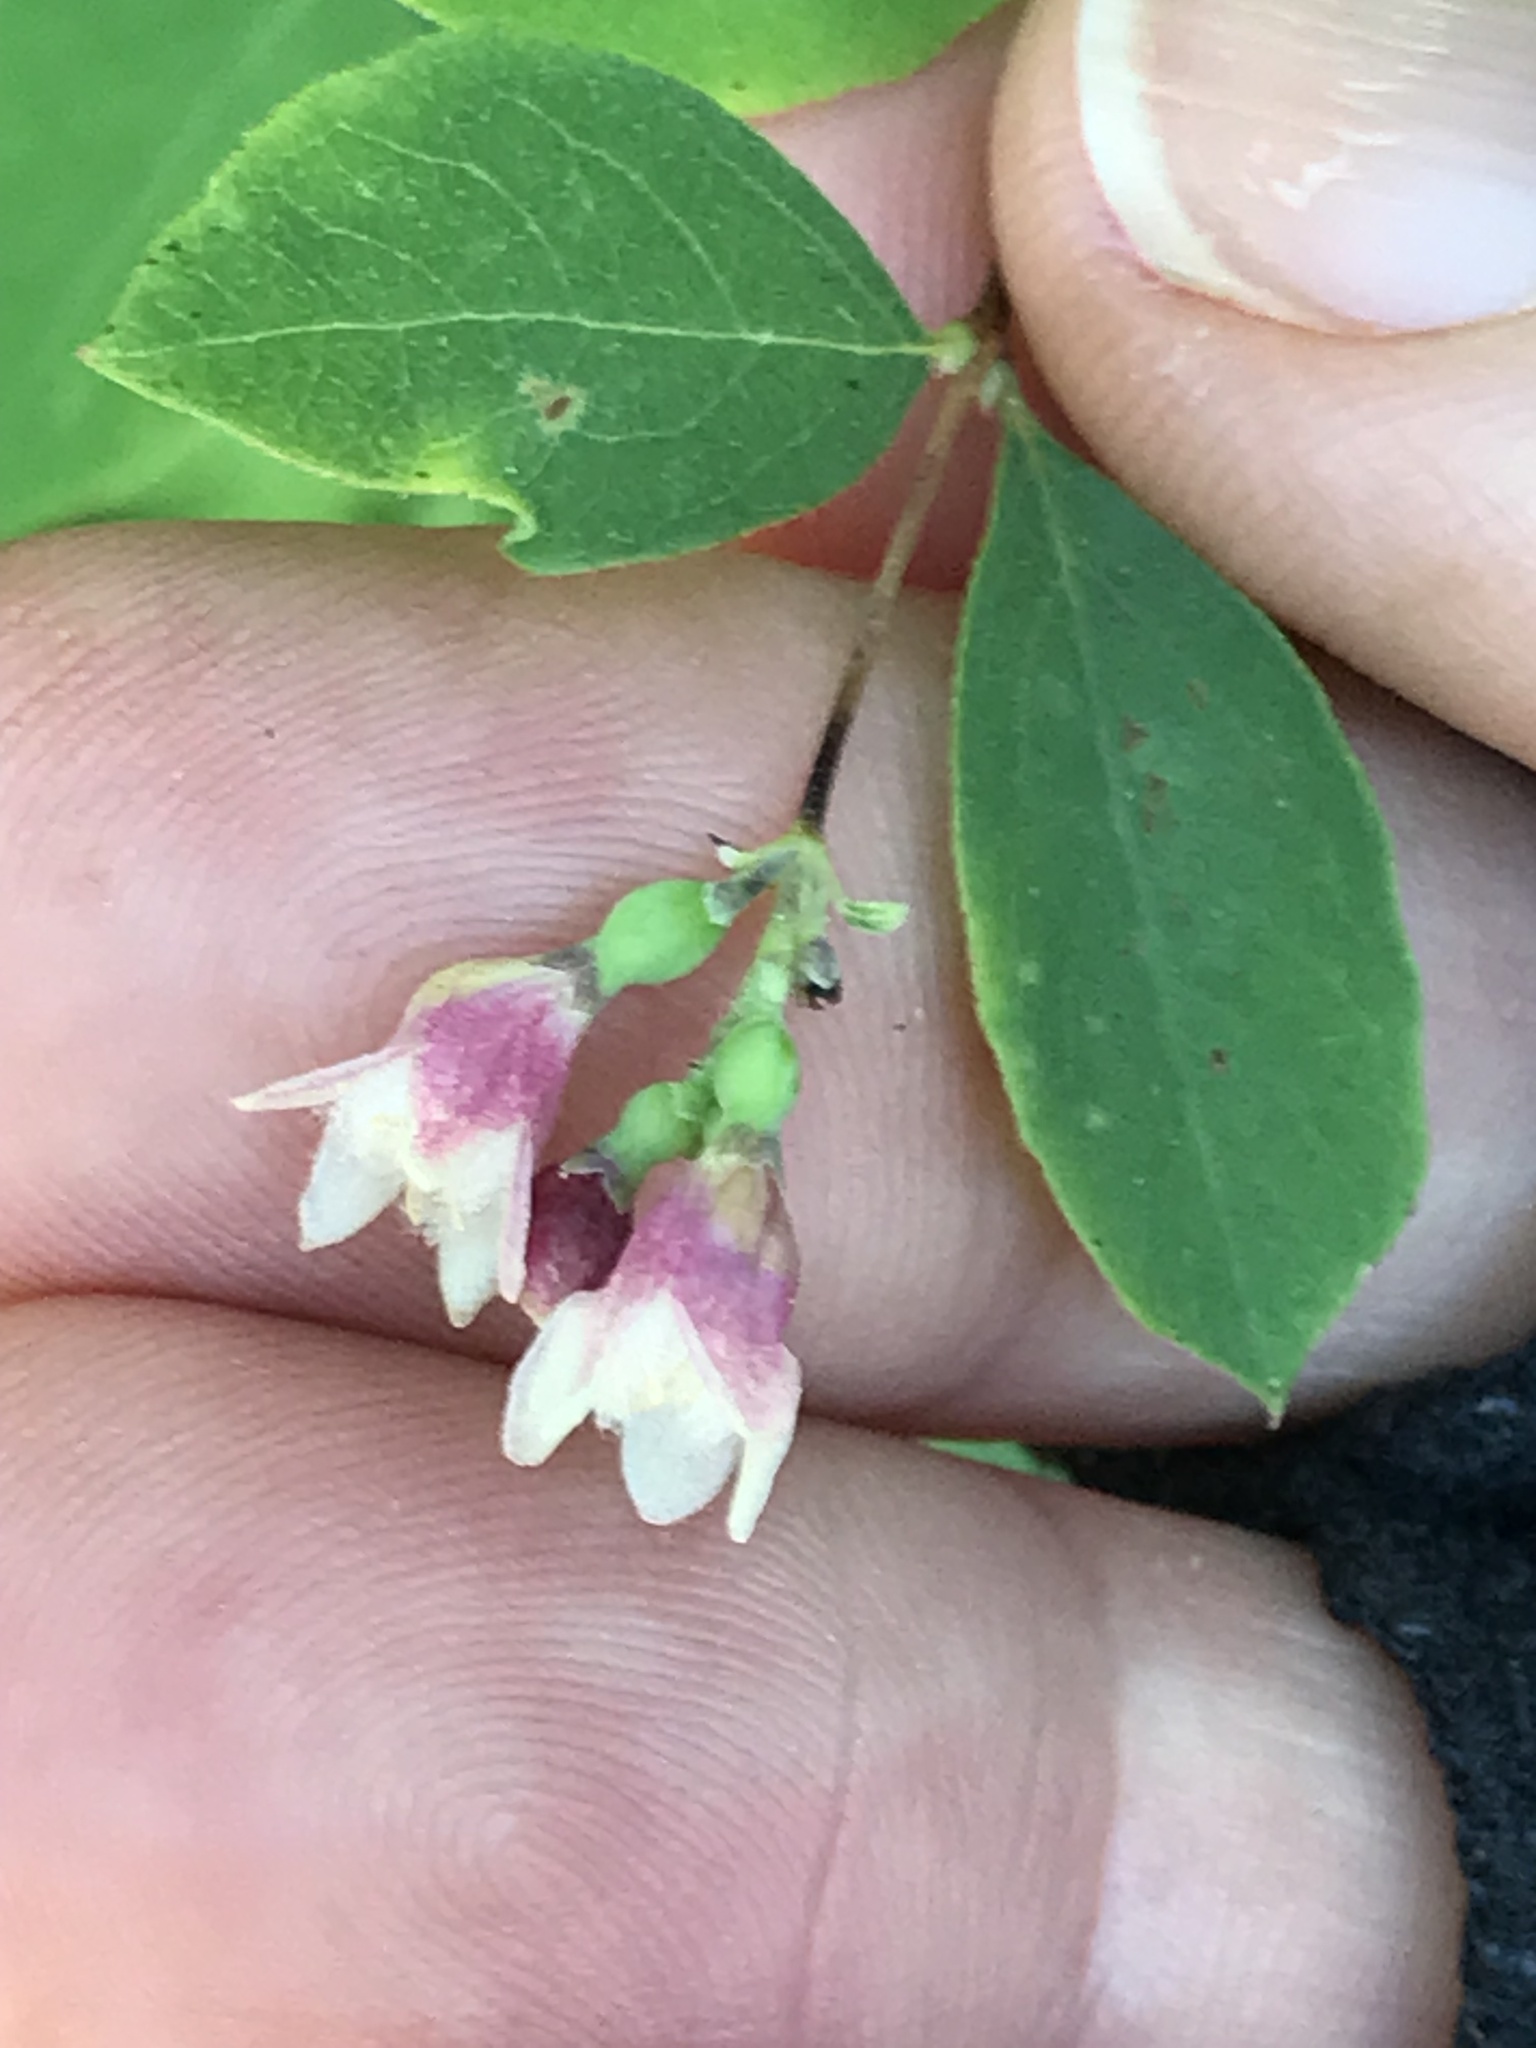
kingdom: Plantae
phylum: Tracheophyta
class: Magnoliopsida
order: Dipsacales
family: Caprifoliaceae
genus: Symphoricarpos
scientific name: Symphoricarpos albus
